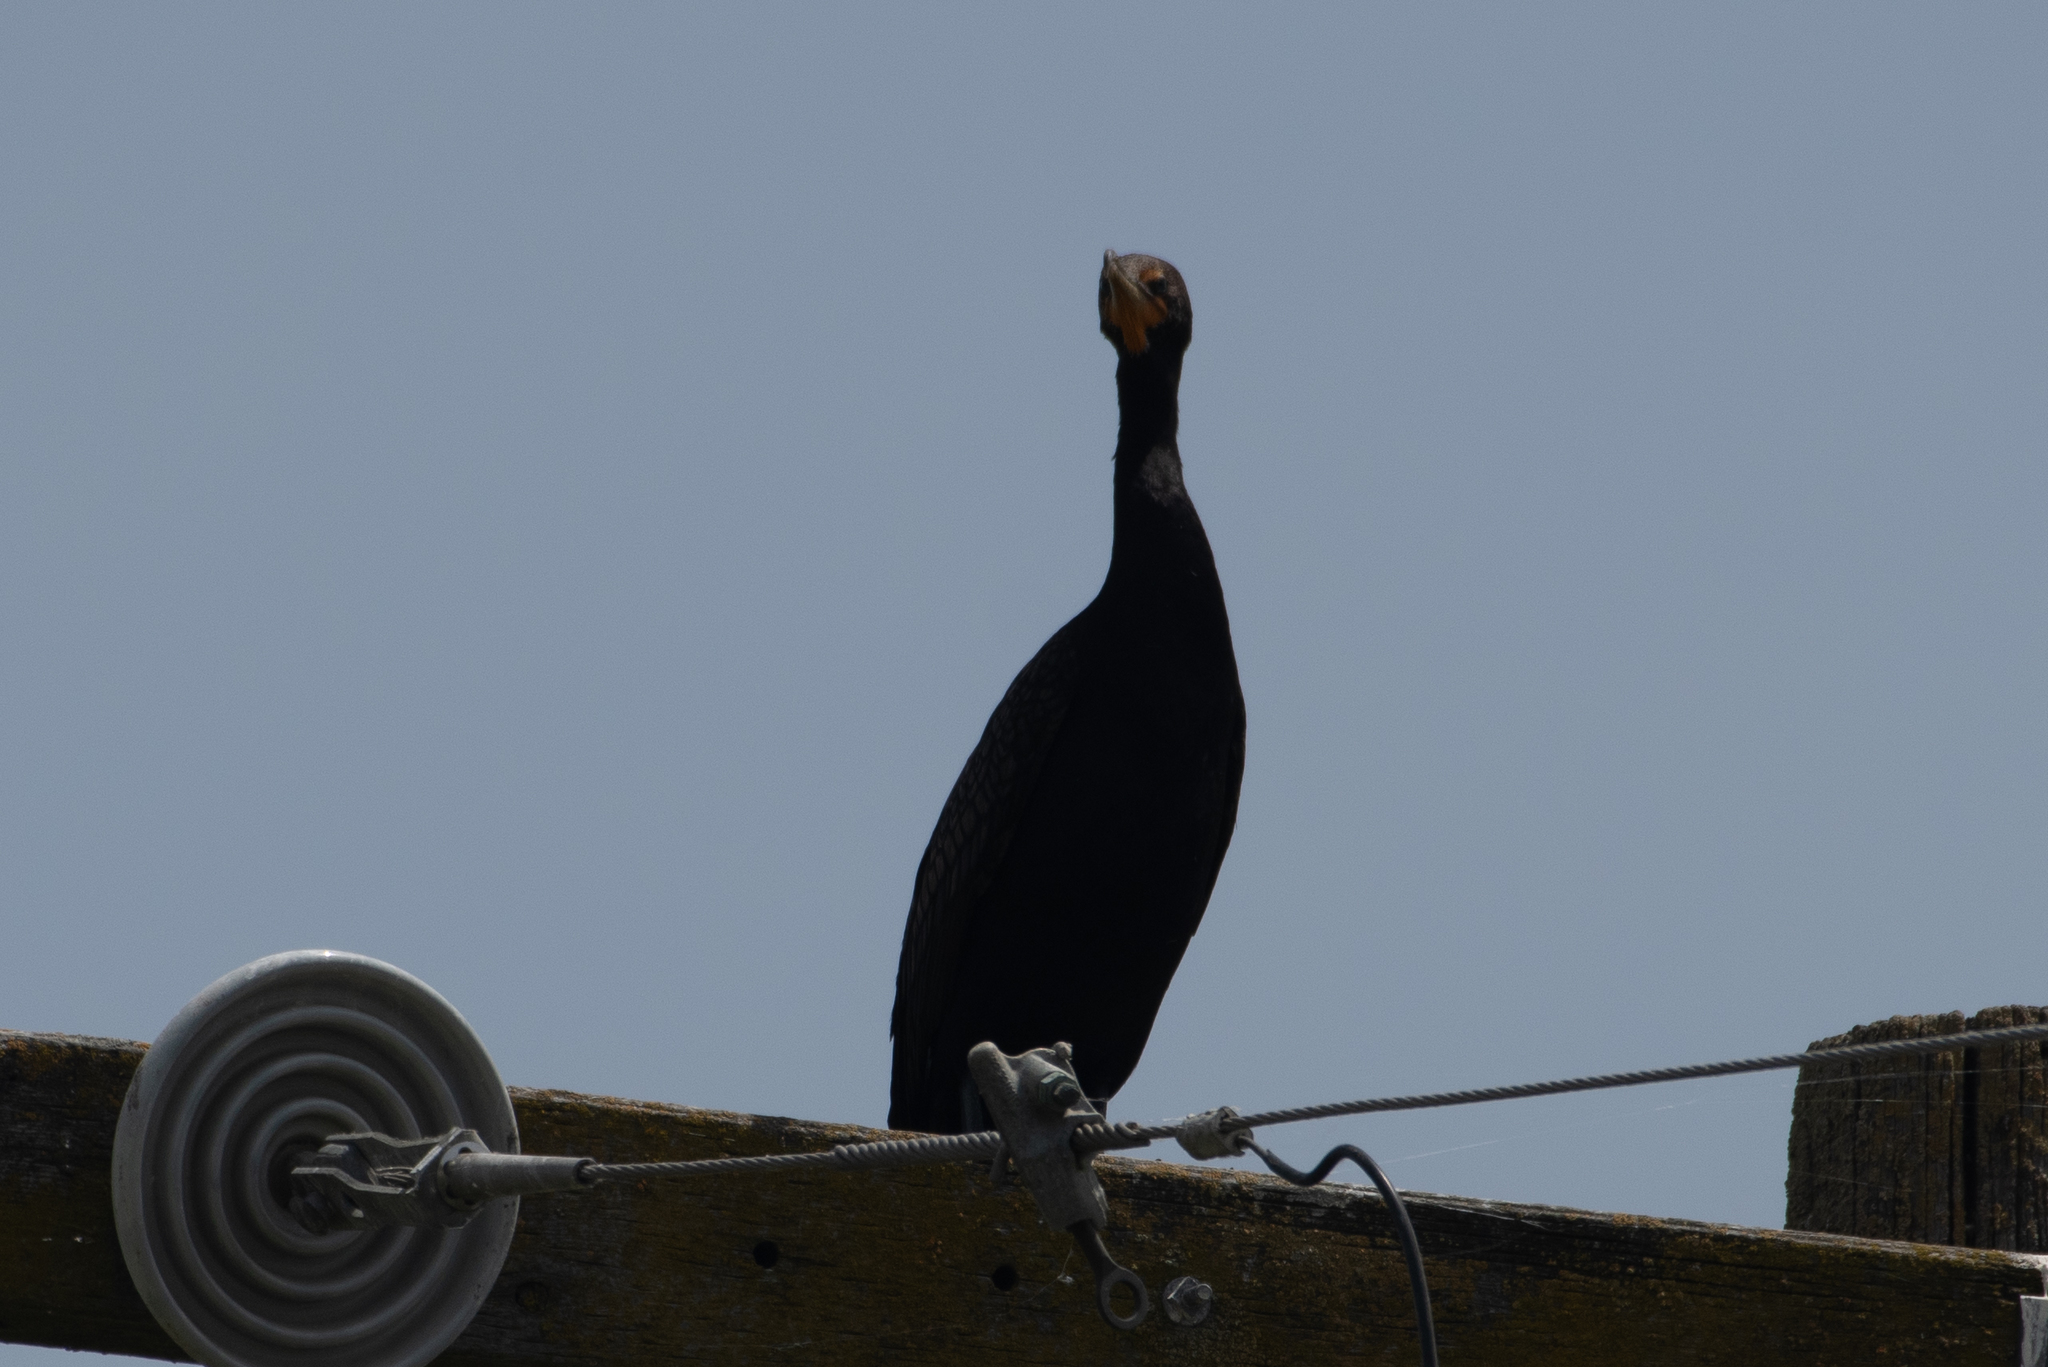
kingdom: Animalia
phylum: Chordata
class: Aves
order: Suliformes
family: Phalacrocoracidae
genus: Phalacrocorax
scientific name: Phalacrocorax auritus
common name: Double-crested cormorant
